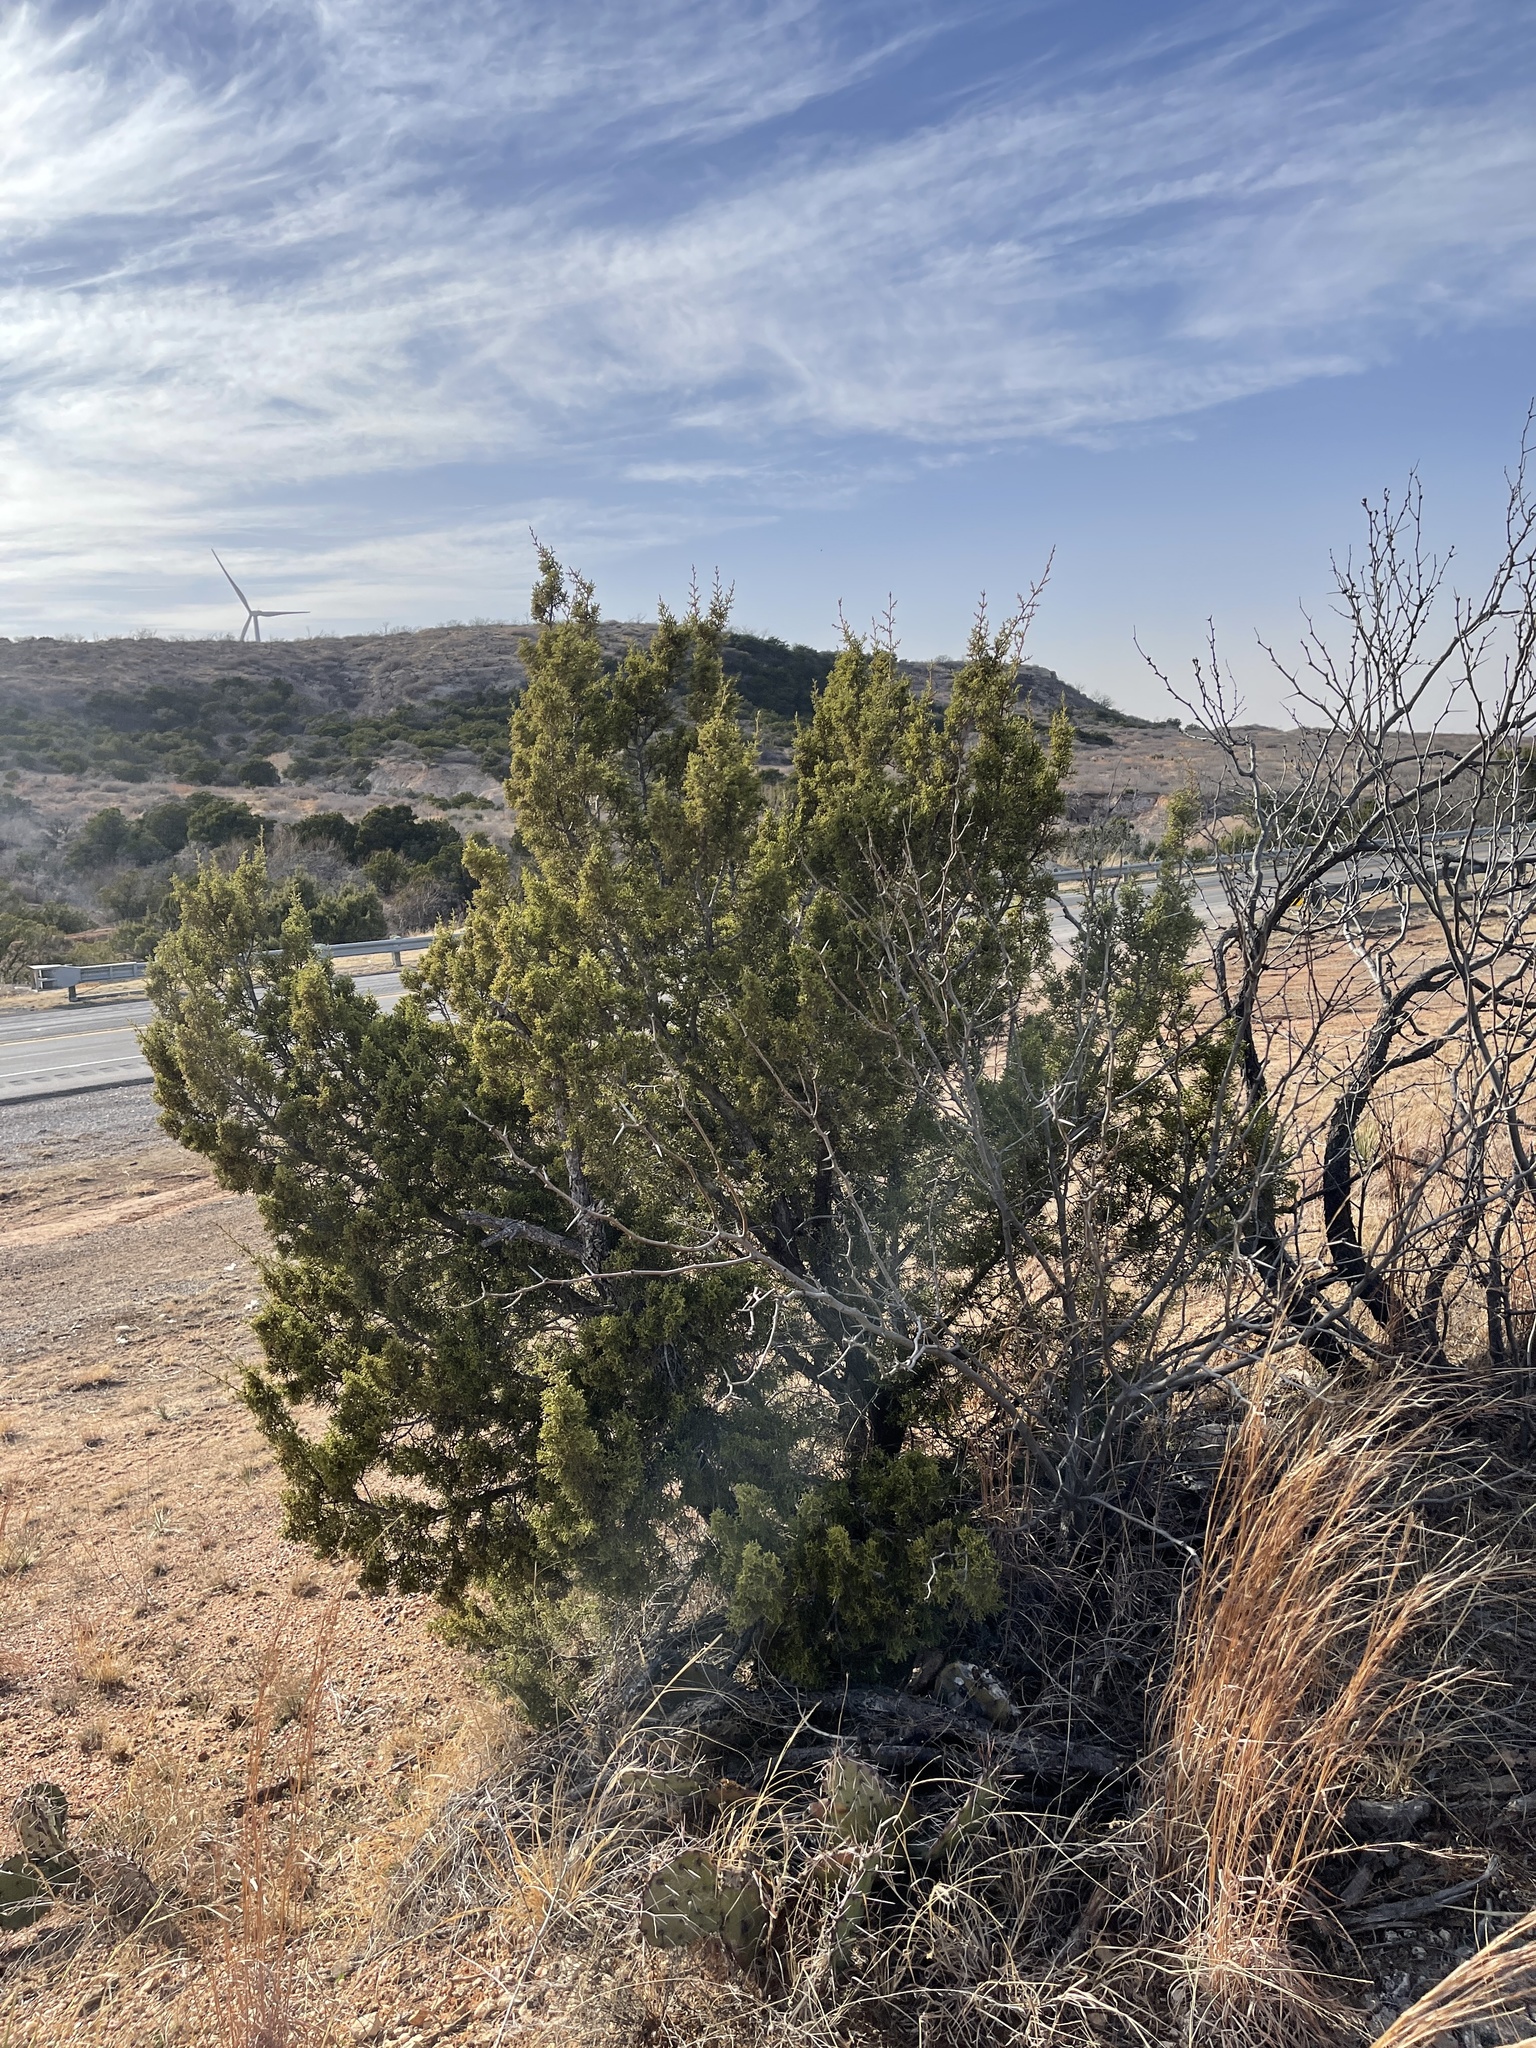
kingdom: Plantae
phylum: Tracheophyta
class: Pinopsida
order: Pinales
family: Cupressaceae
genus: Juniperus
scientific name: Juniperus pinchotii
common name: Pinchot juniper
